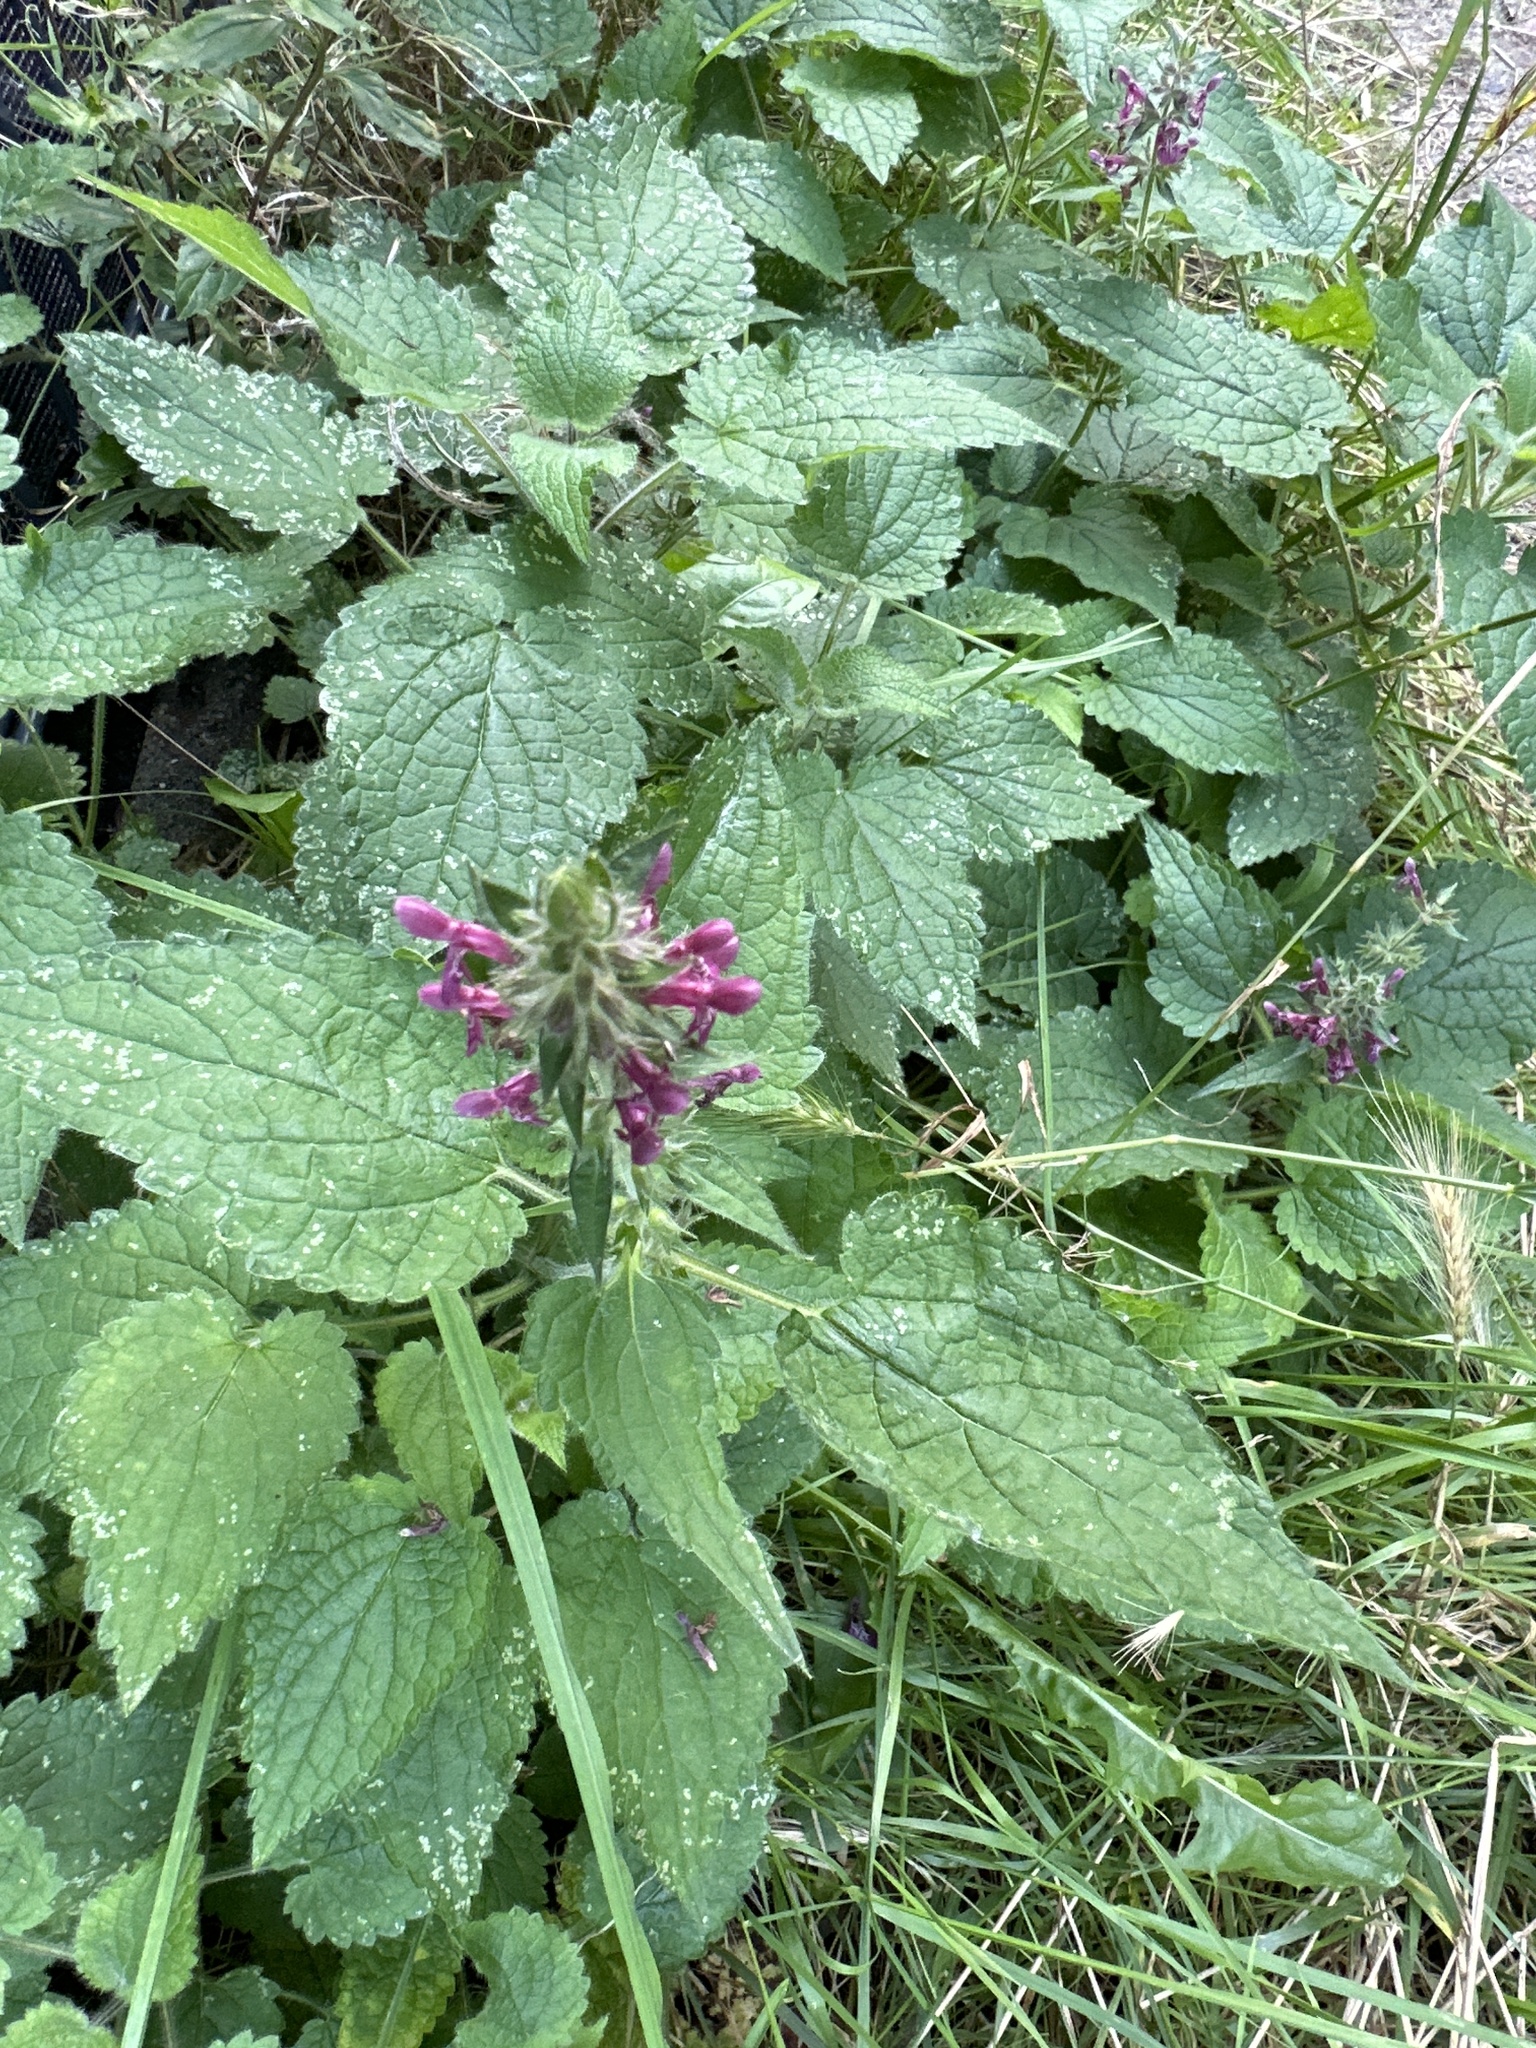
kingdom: Plantae
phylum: Tracheophyta
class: Magnoliopsida
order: Lamiales
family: Lamiaceae
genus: Stachys
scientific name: Stachys sylvatica
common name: Hedge woundwort
